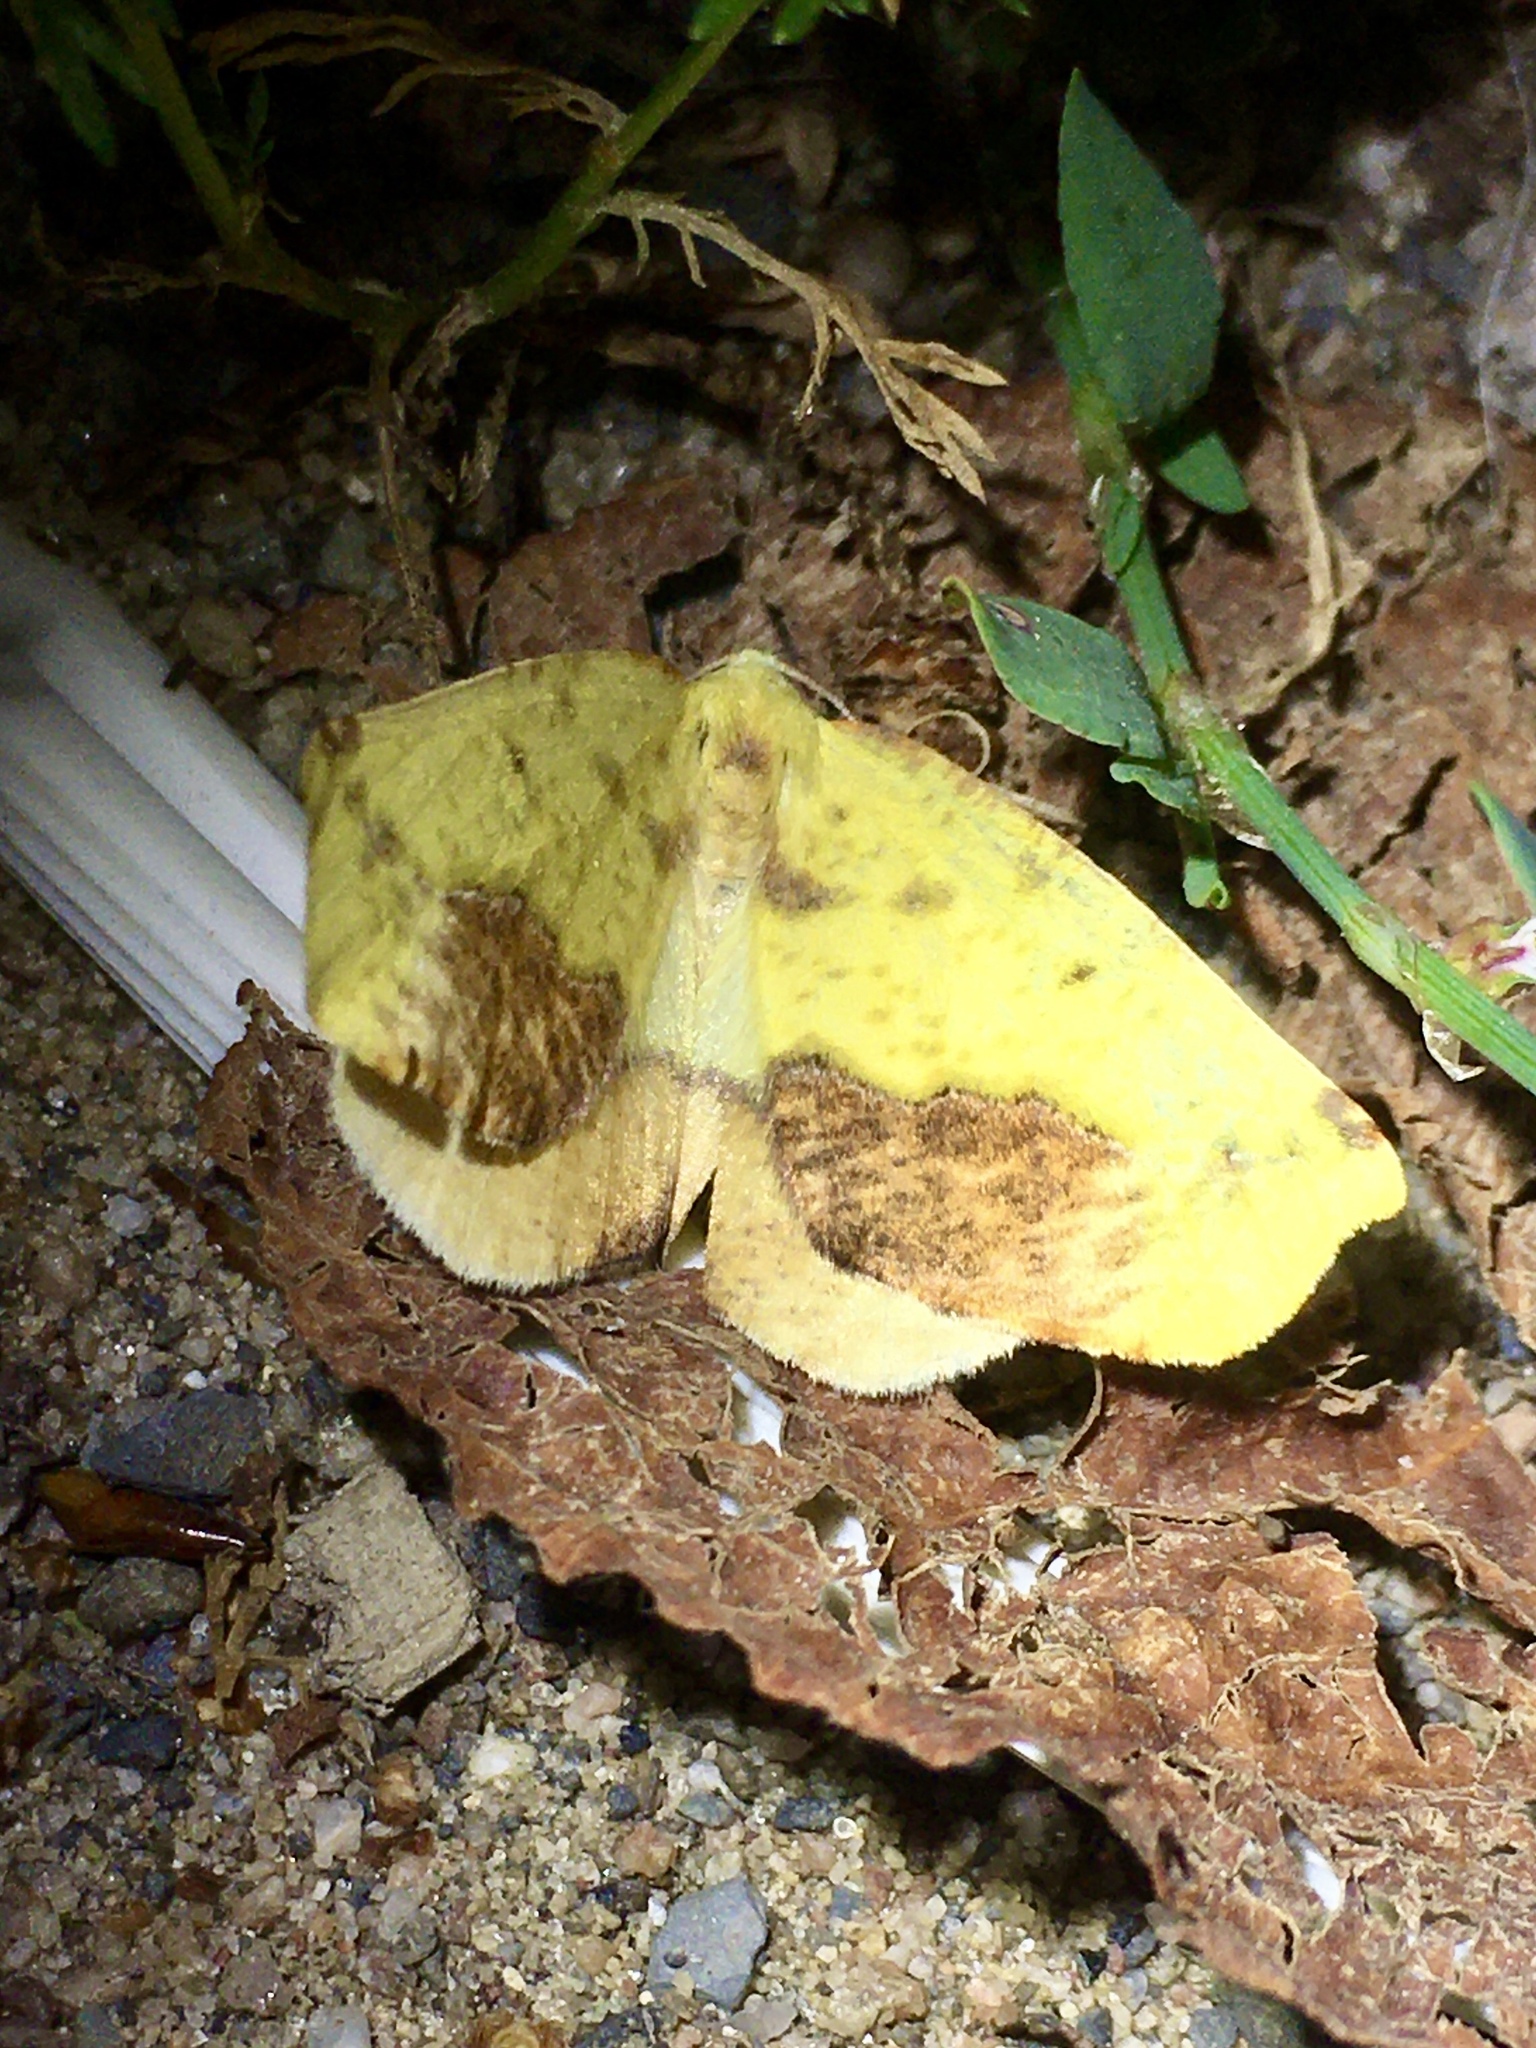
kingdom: Animalia
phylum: Arthropoda
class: Insecta
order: Lepidoptera
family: Geometridae
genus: Sicya
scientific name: Sicya macularia
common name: Sharp-lined yellow
